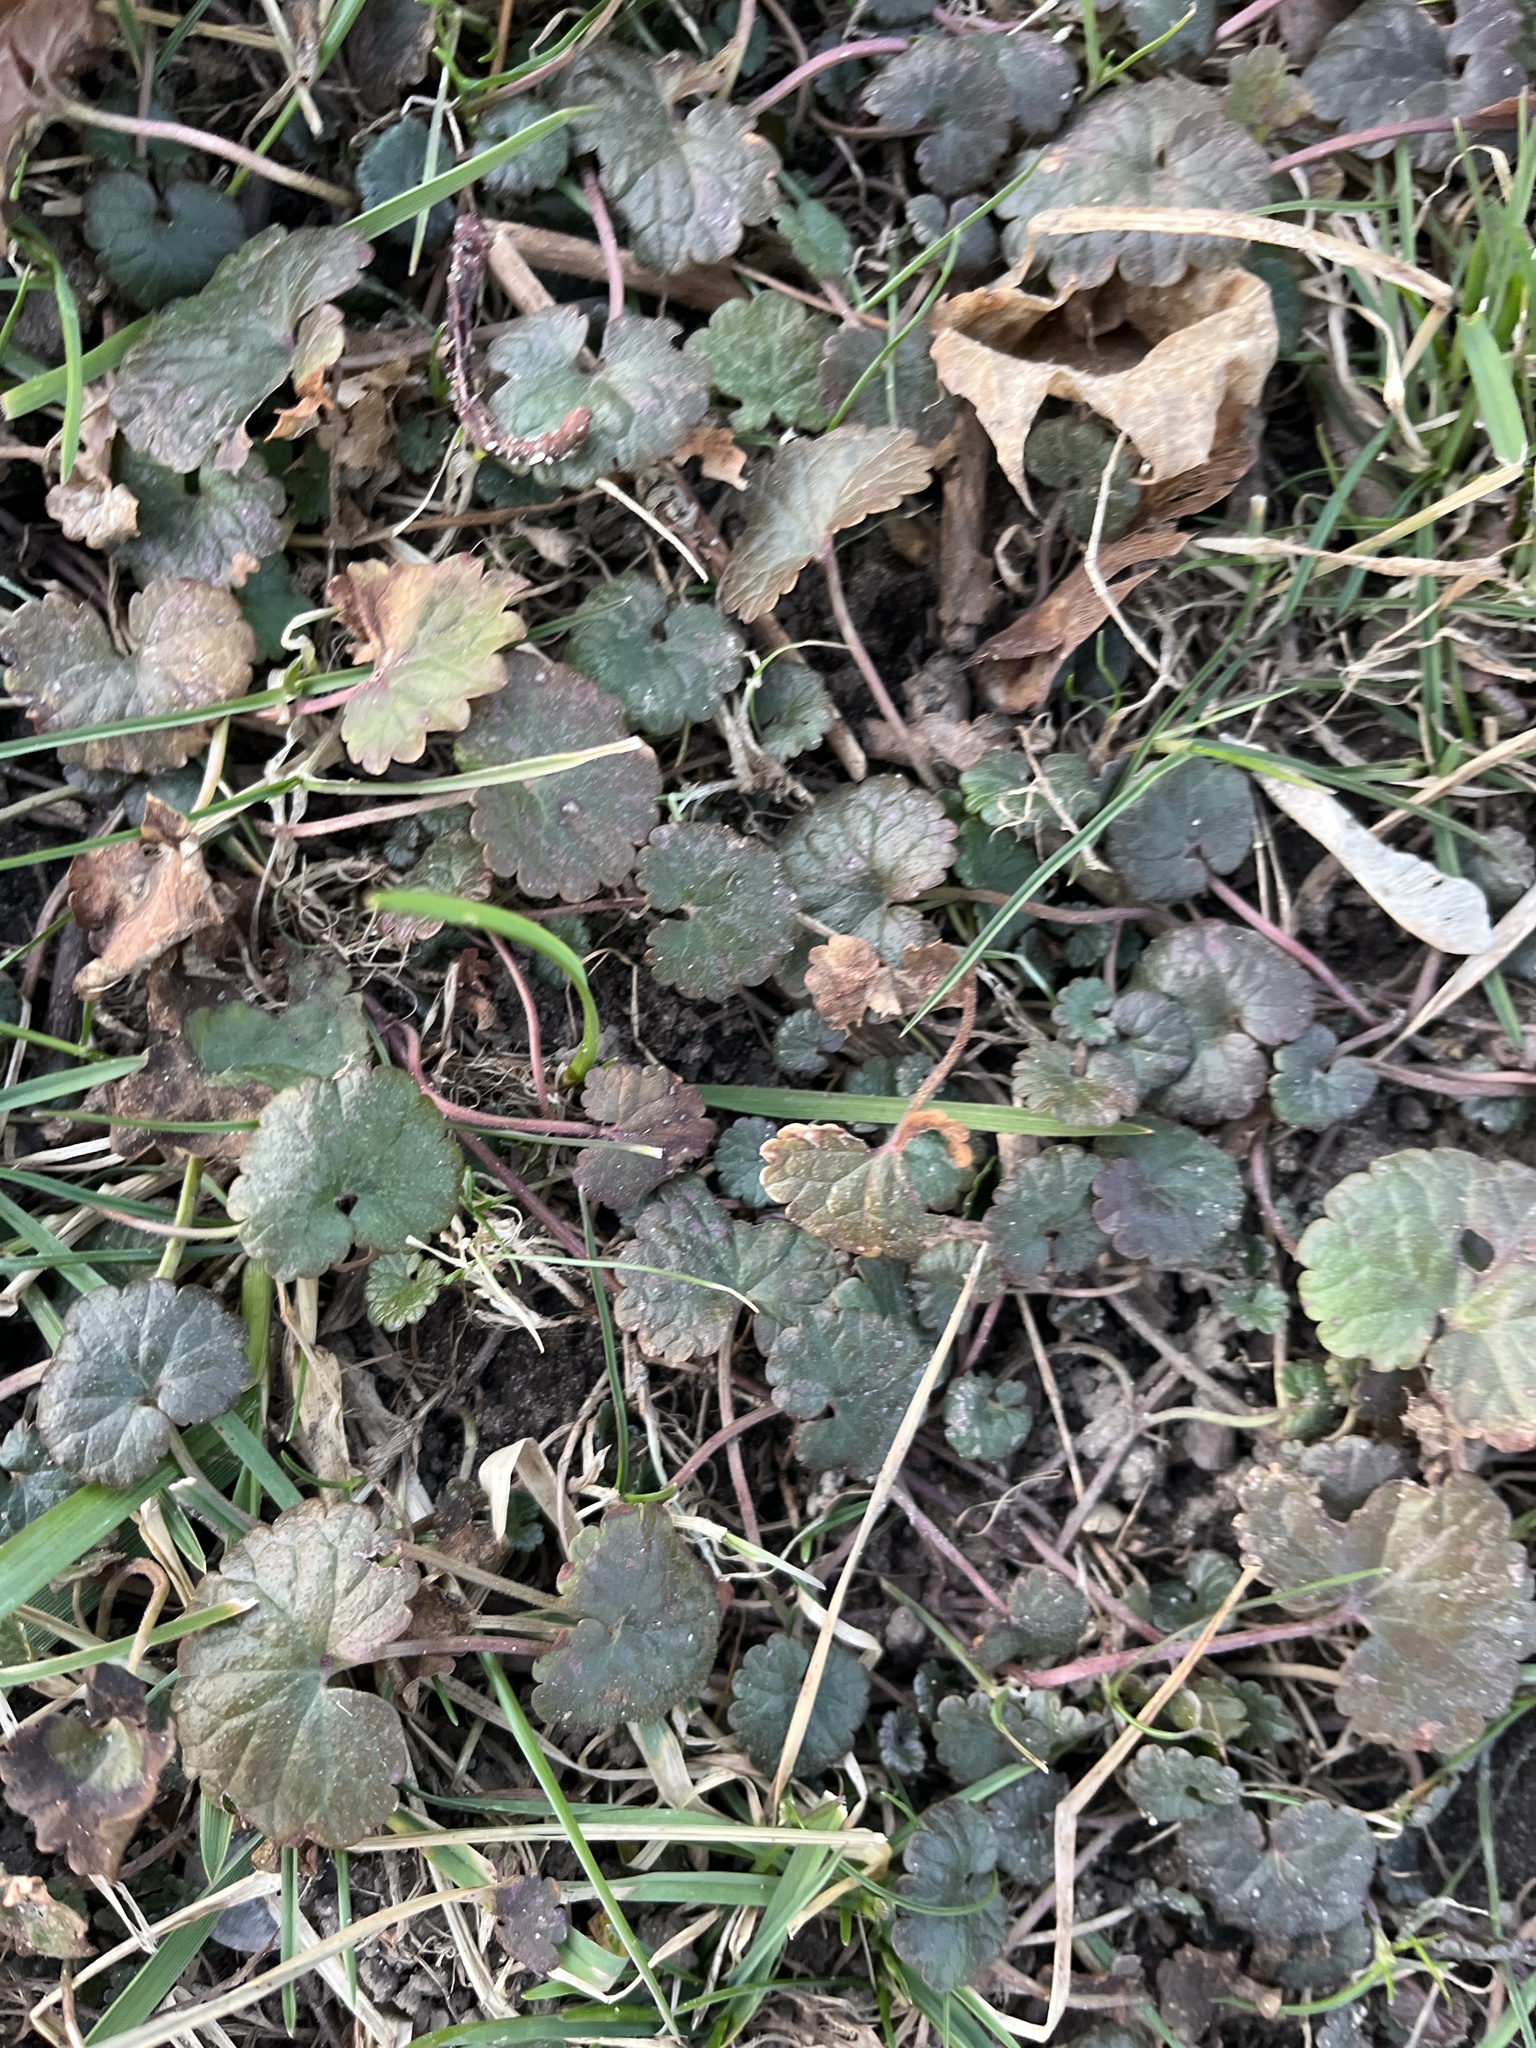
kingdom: Plantae
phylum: Tracheophyta
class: Magnoliopsida
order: Lamiales
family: Lamiaceae
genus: Glechoma
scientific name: Glechoma hederacea
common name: Ground ivy
